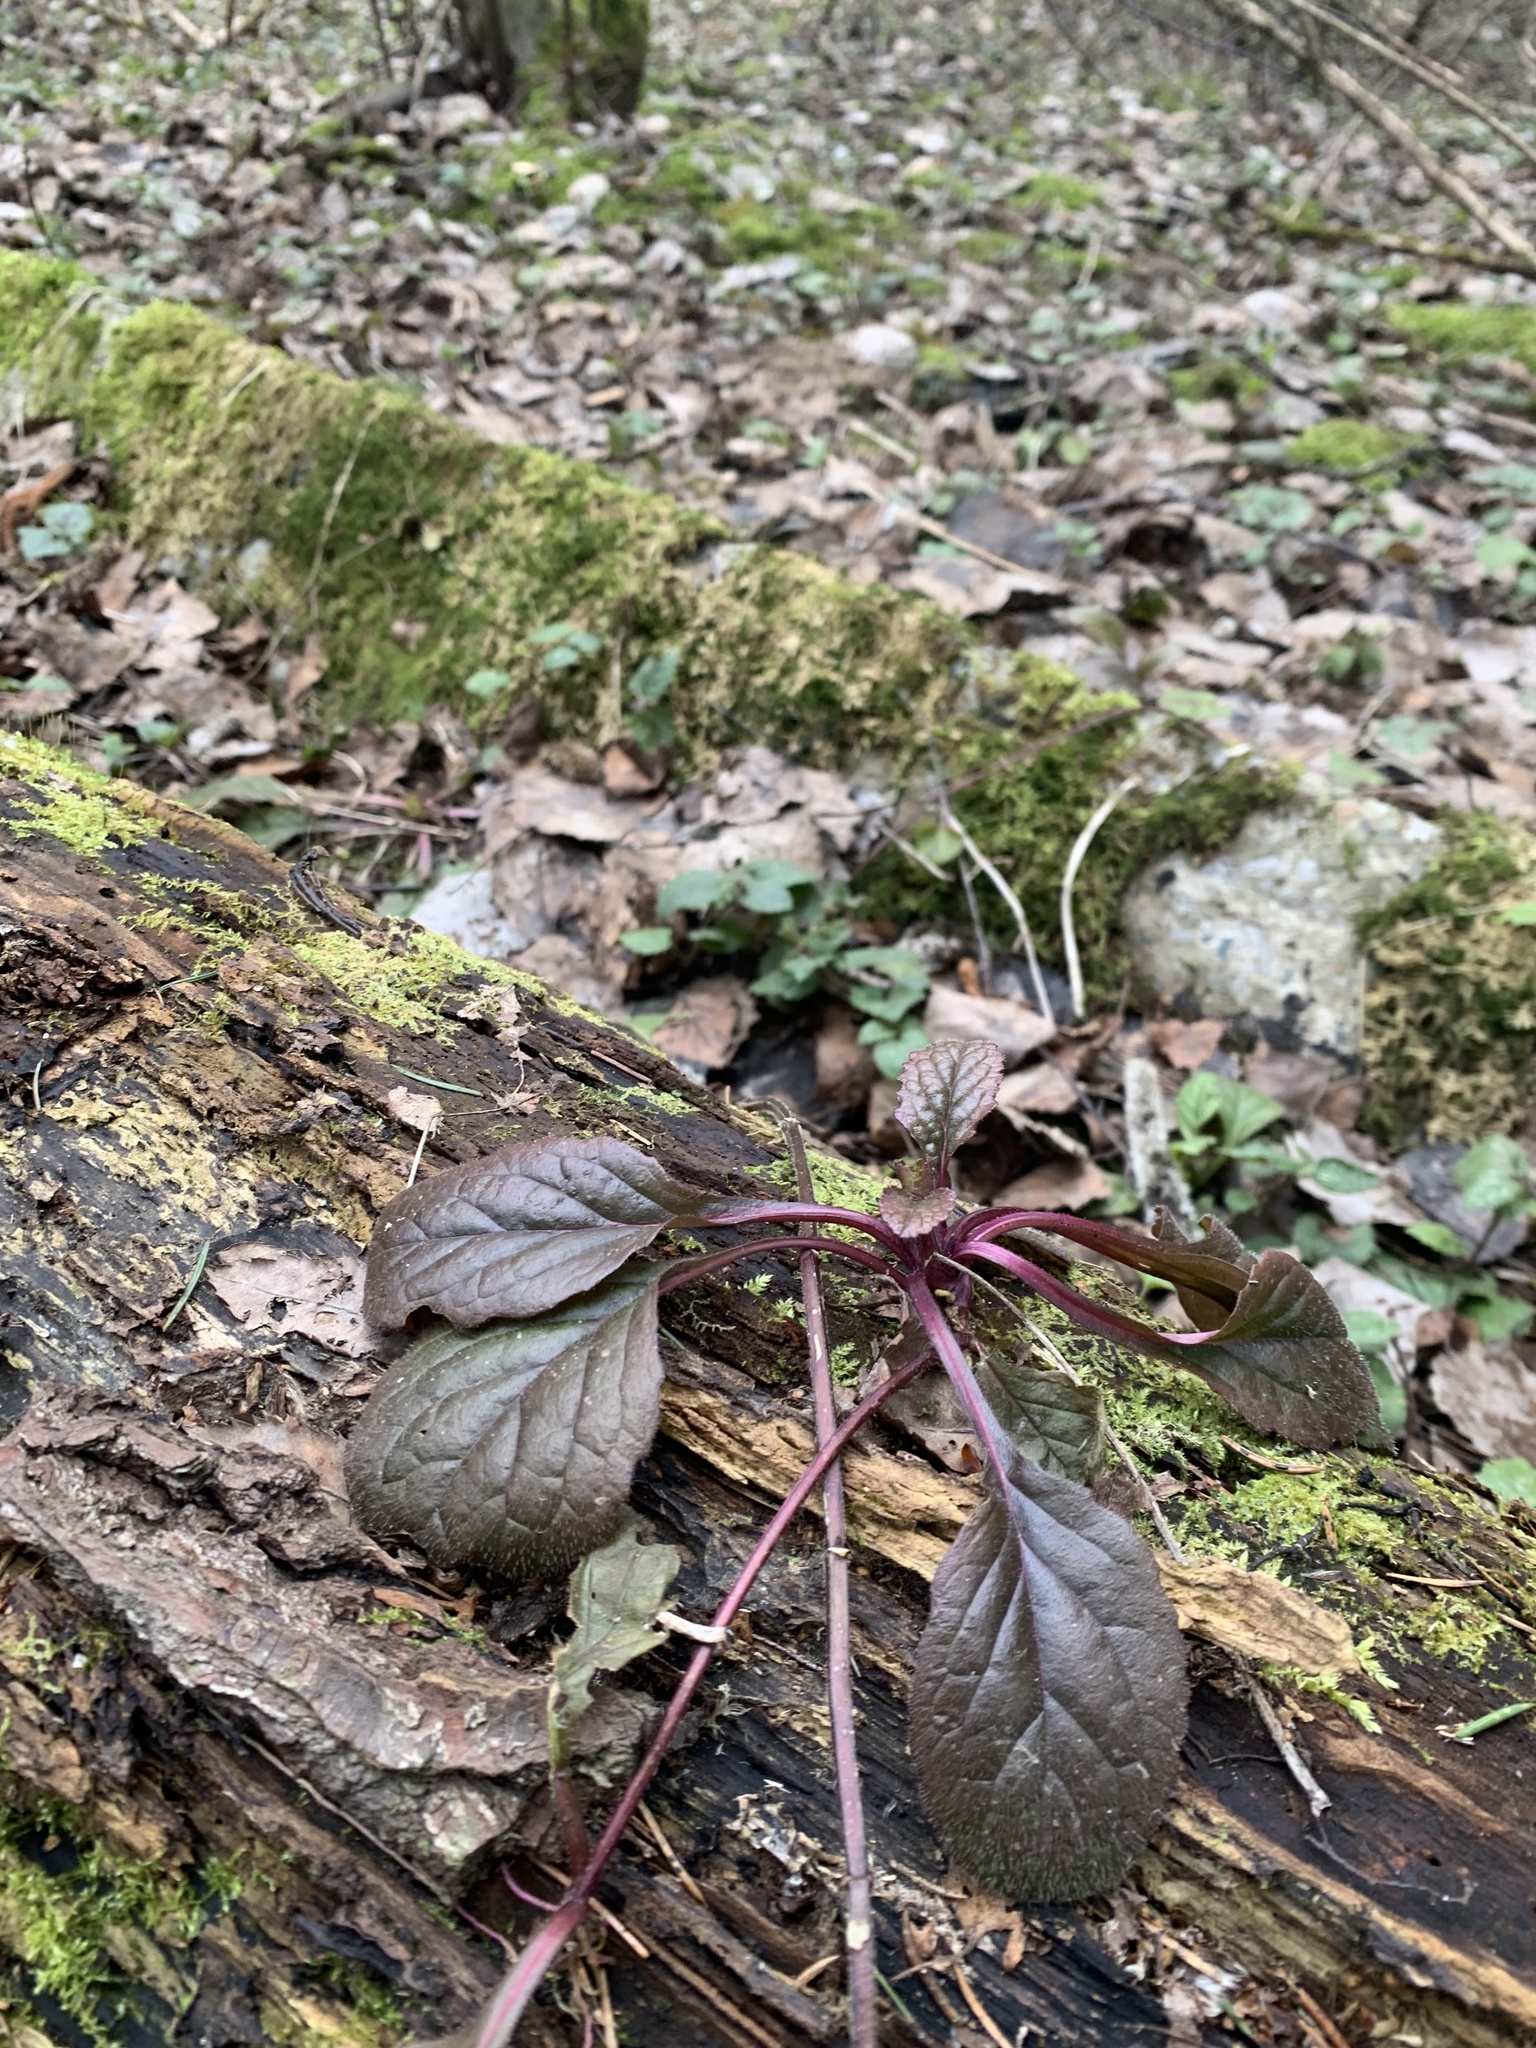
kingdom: Plantae
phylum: Tracheophyta
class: Magnoliopsida
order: Lamiales
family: Lamiaceae
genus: Ajuga
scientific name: Ajuga reptans
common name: Bugle
